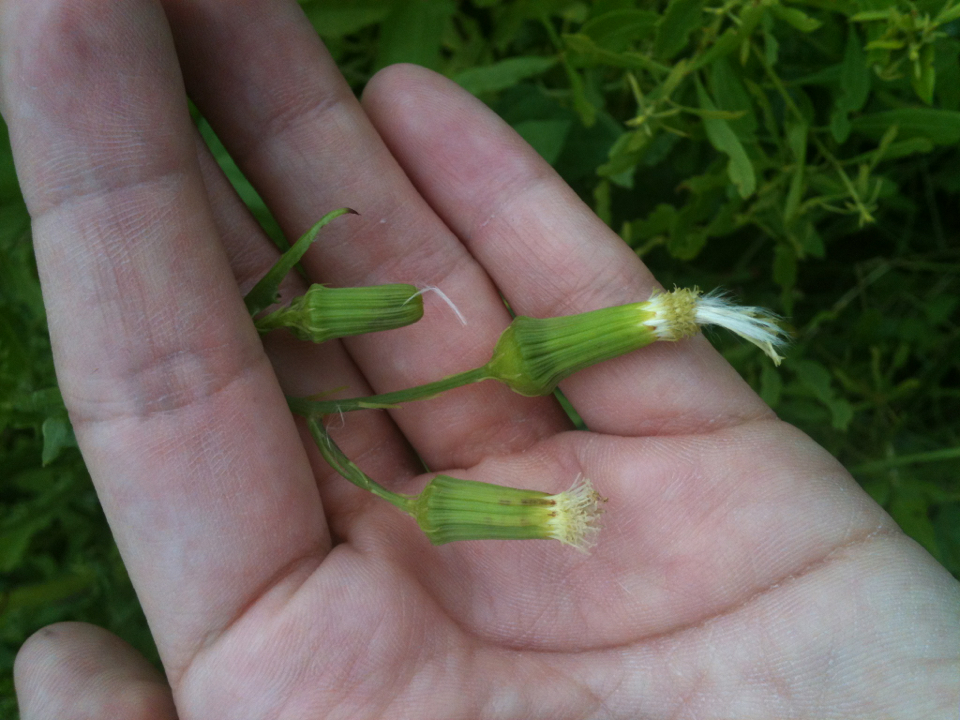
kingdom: Plantae
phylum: Tracheophyta
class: Magnoliopsida
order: Asterales
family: Asteraceae
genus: Erechtites
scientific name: Erechtites hieraciifolius
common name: American burnweed
